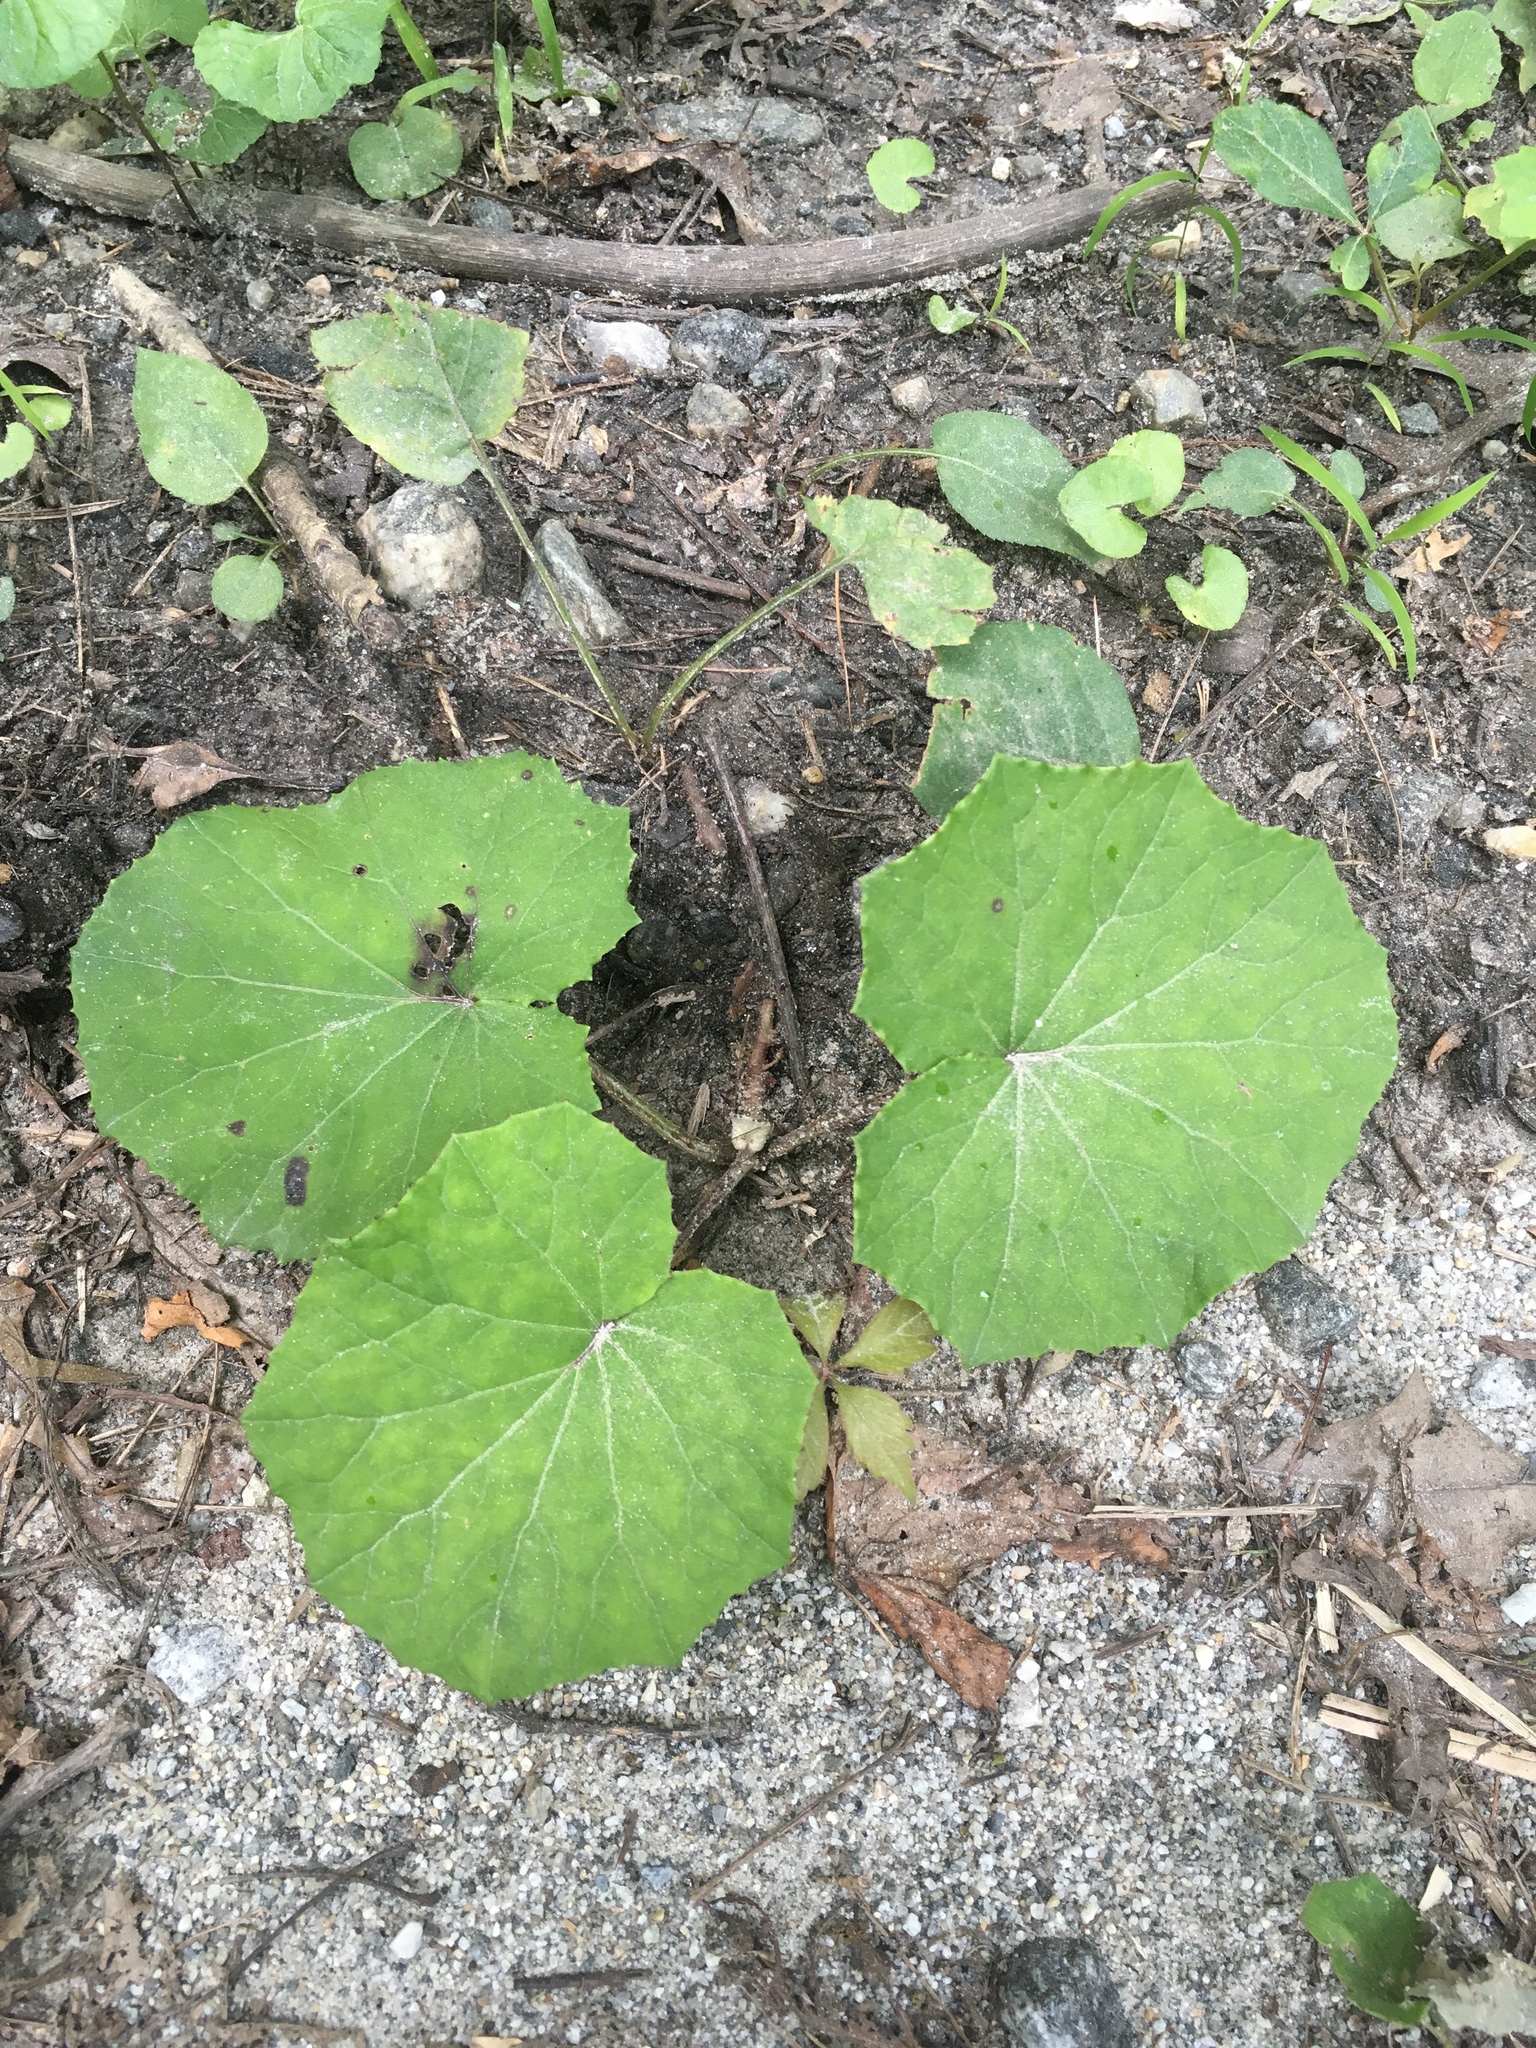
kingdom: Plantae
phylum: Tracheophyta
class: Magnoliopsida
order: Asterales
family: Asteraceae
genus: Tussilago
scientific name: Tussilago farfara
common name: Coltsfoot
